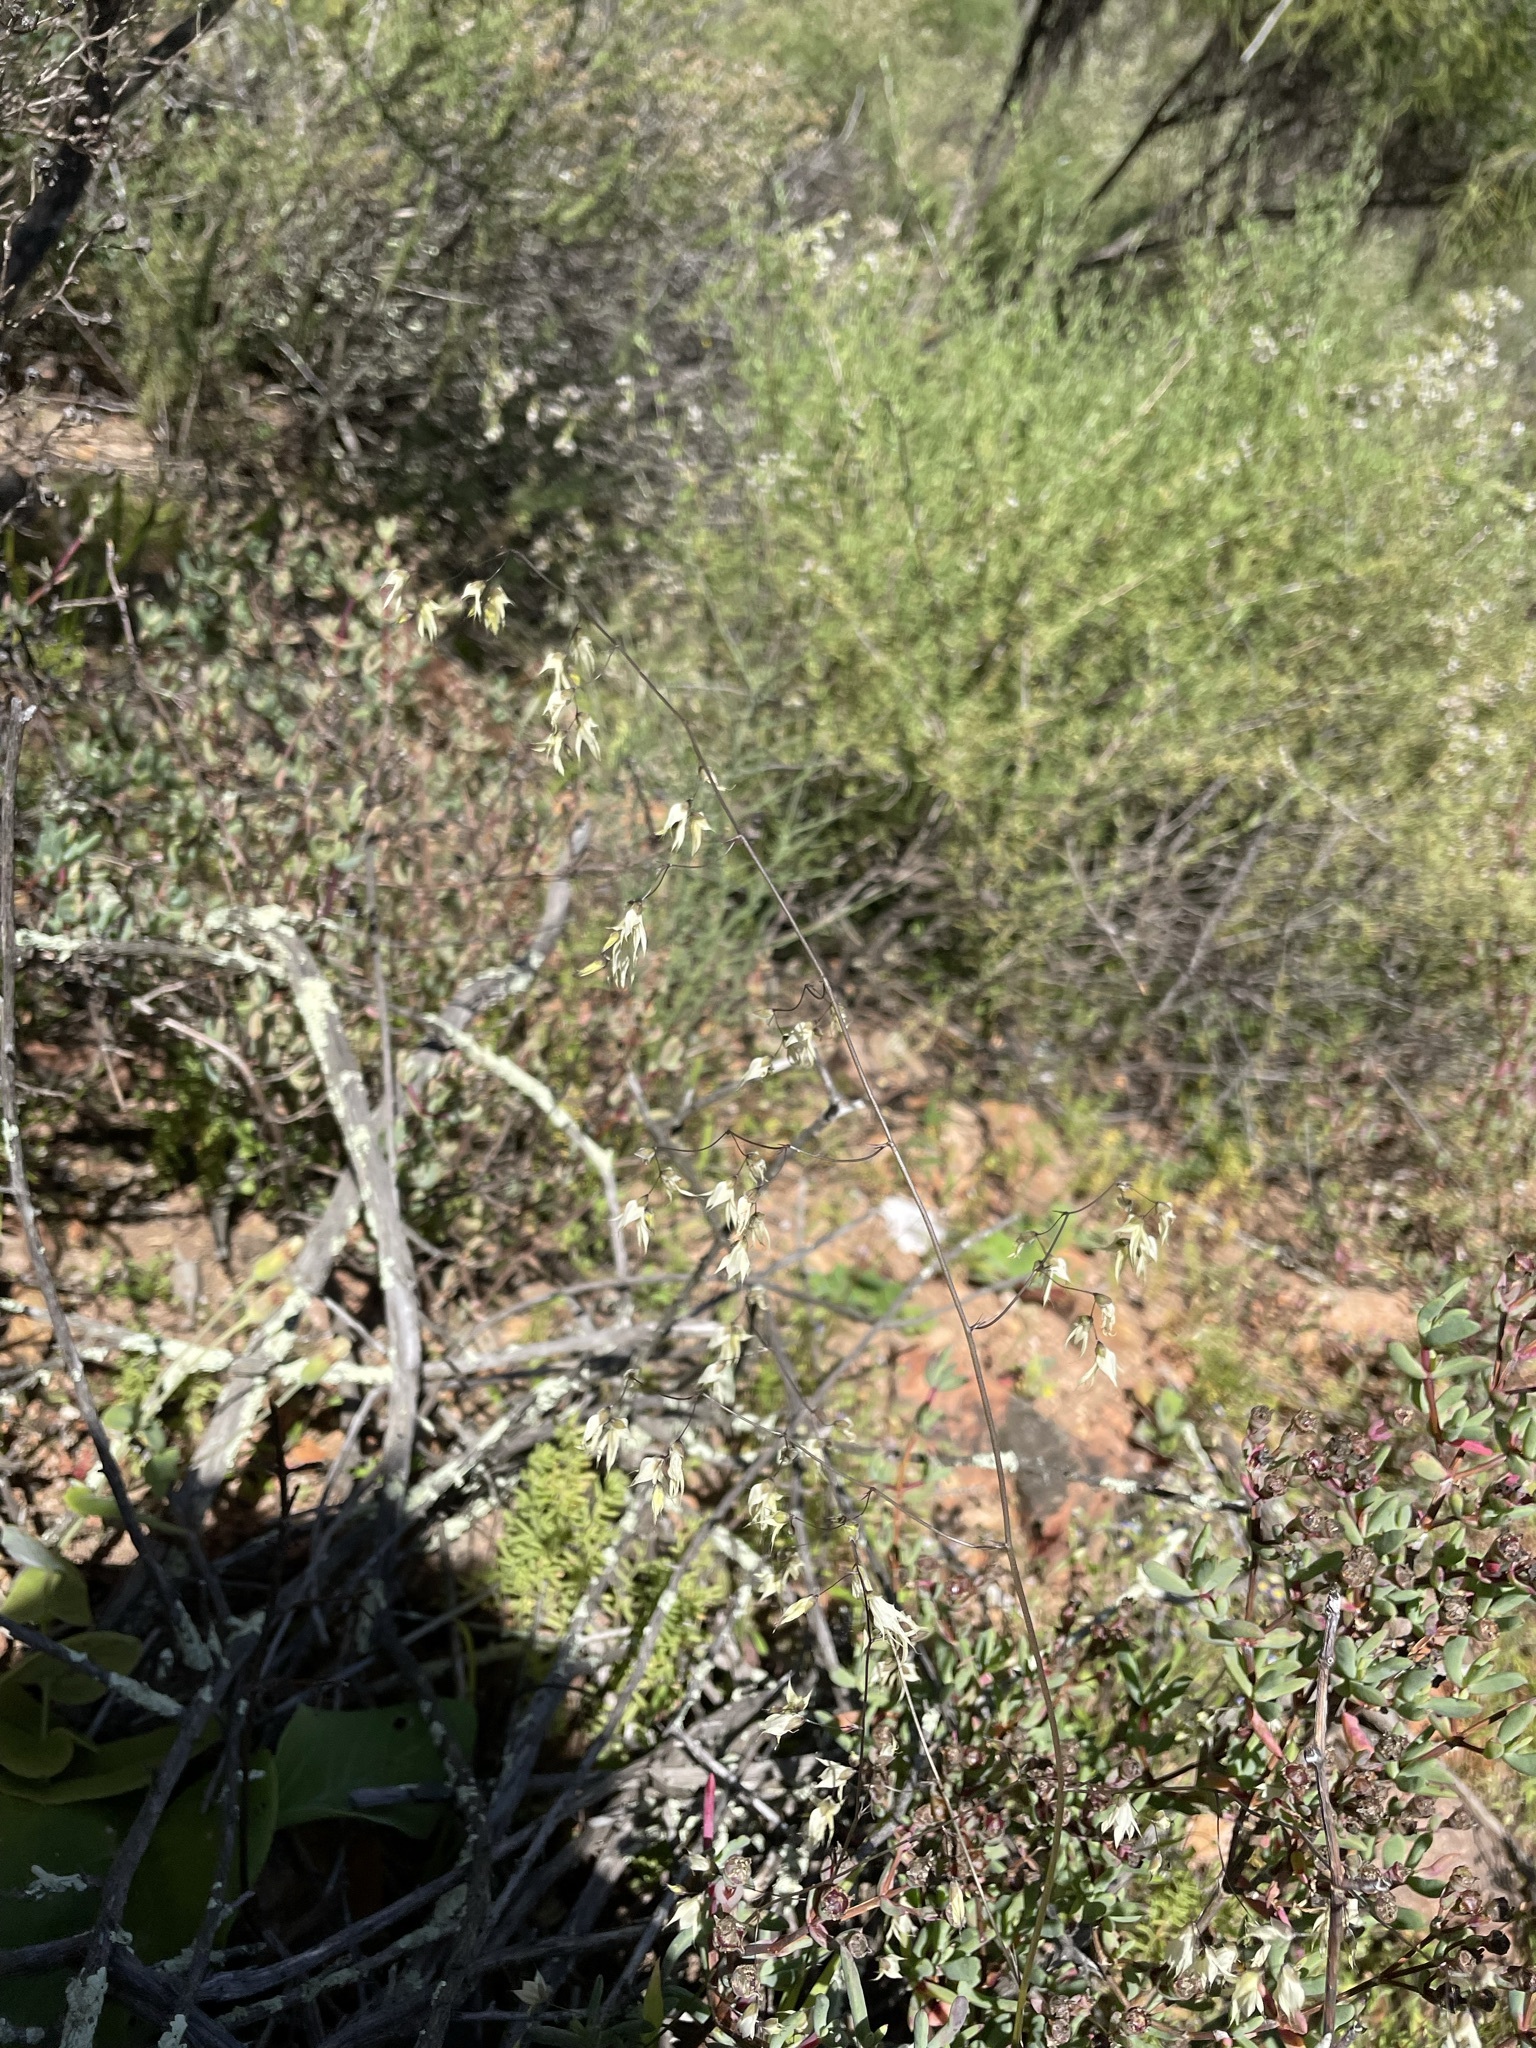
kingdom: Plantae
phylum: Tracheophyta
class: Liliopsida
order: Asparagales
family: Iridaceae
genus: Melasphaerula
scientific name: Melasphaerula graminea
